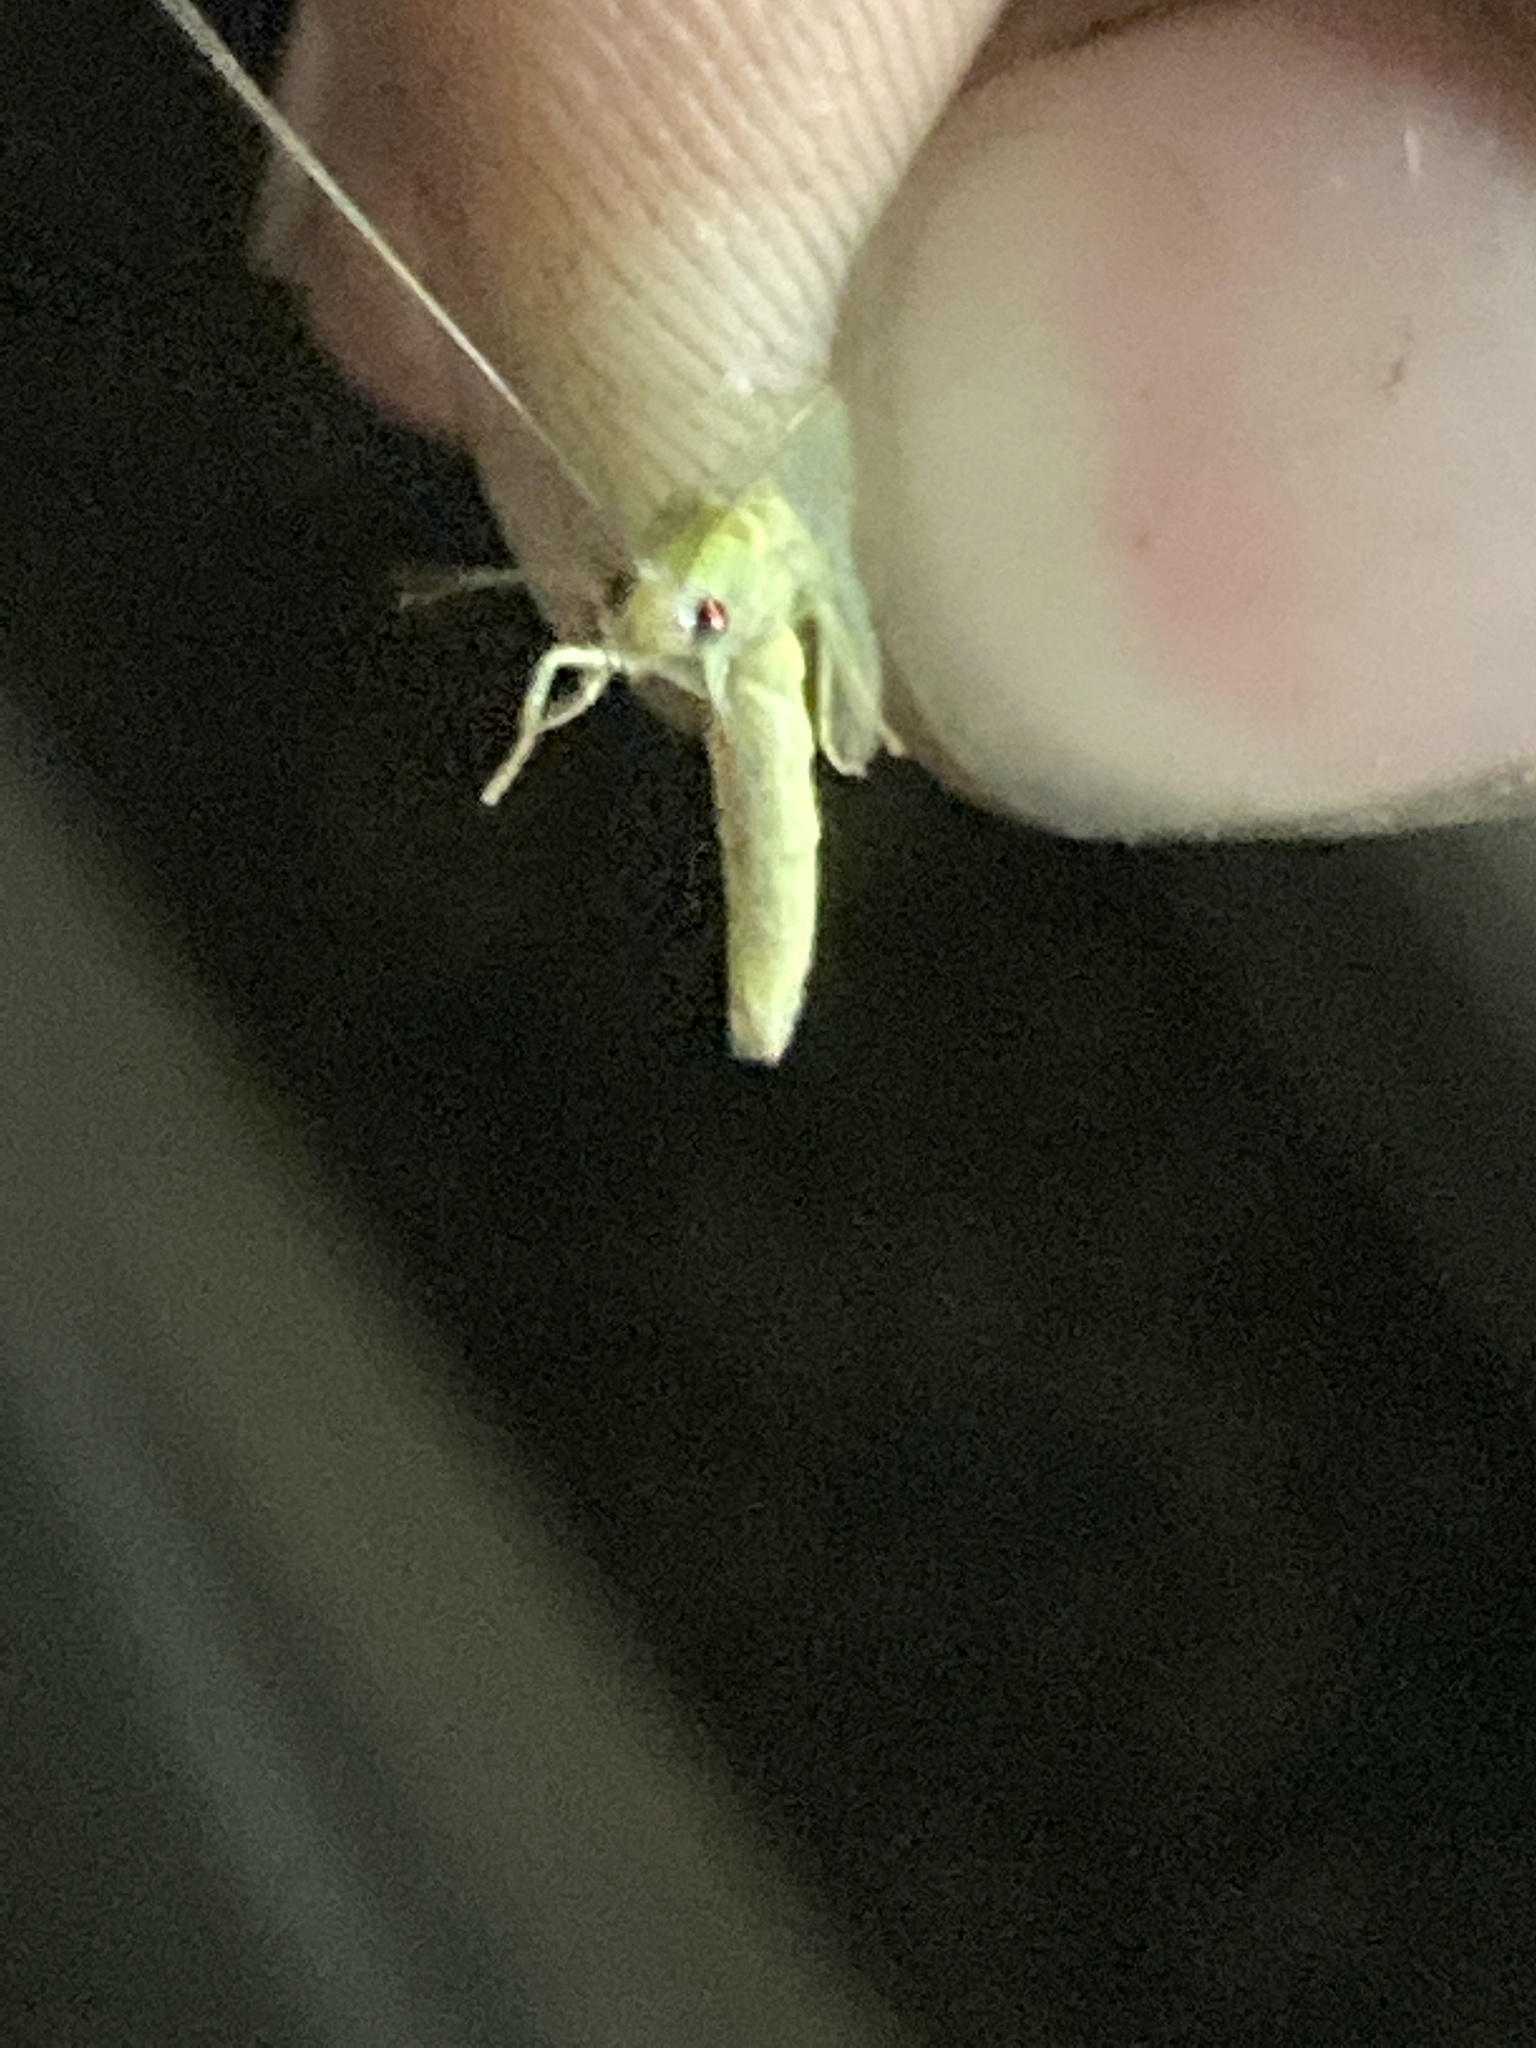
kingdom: Animalia
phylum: Arthropoda
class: Insecta
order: Neuroptera
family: Chrysopidae
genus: Chrysopa
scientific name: Chrysopa nigricornis
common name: Black-horned green lacewing
